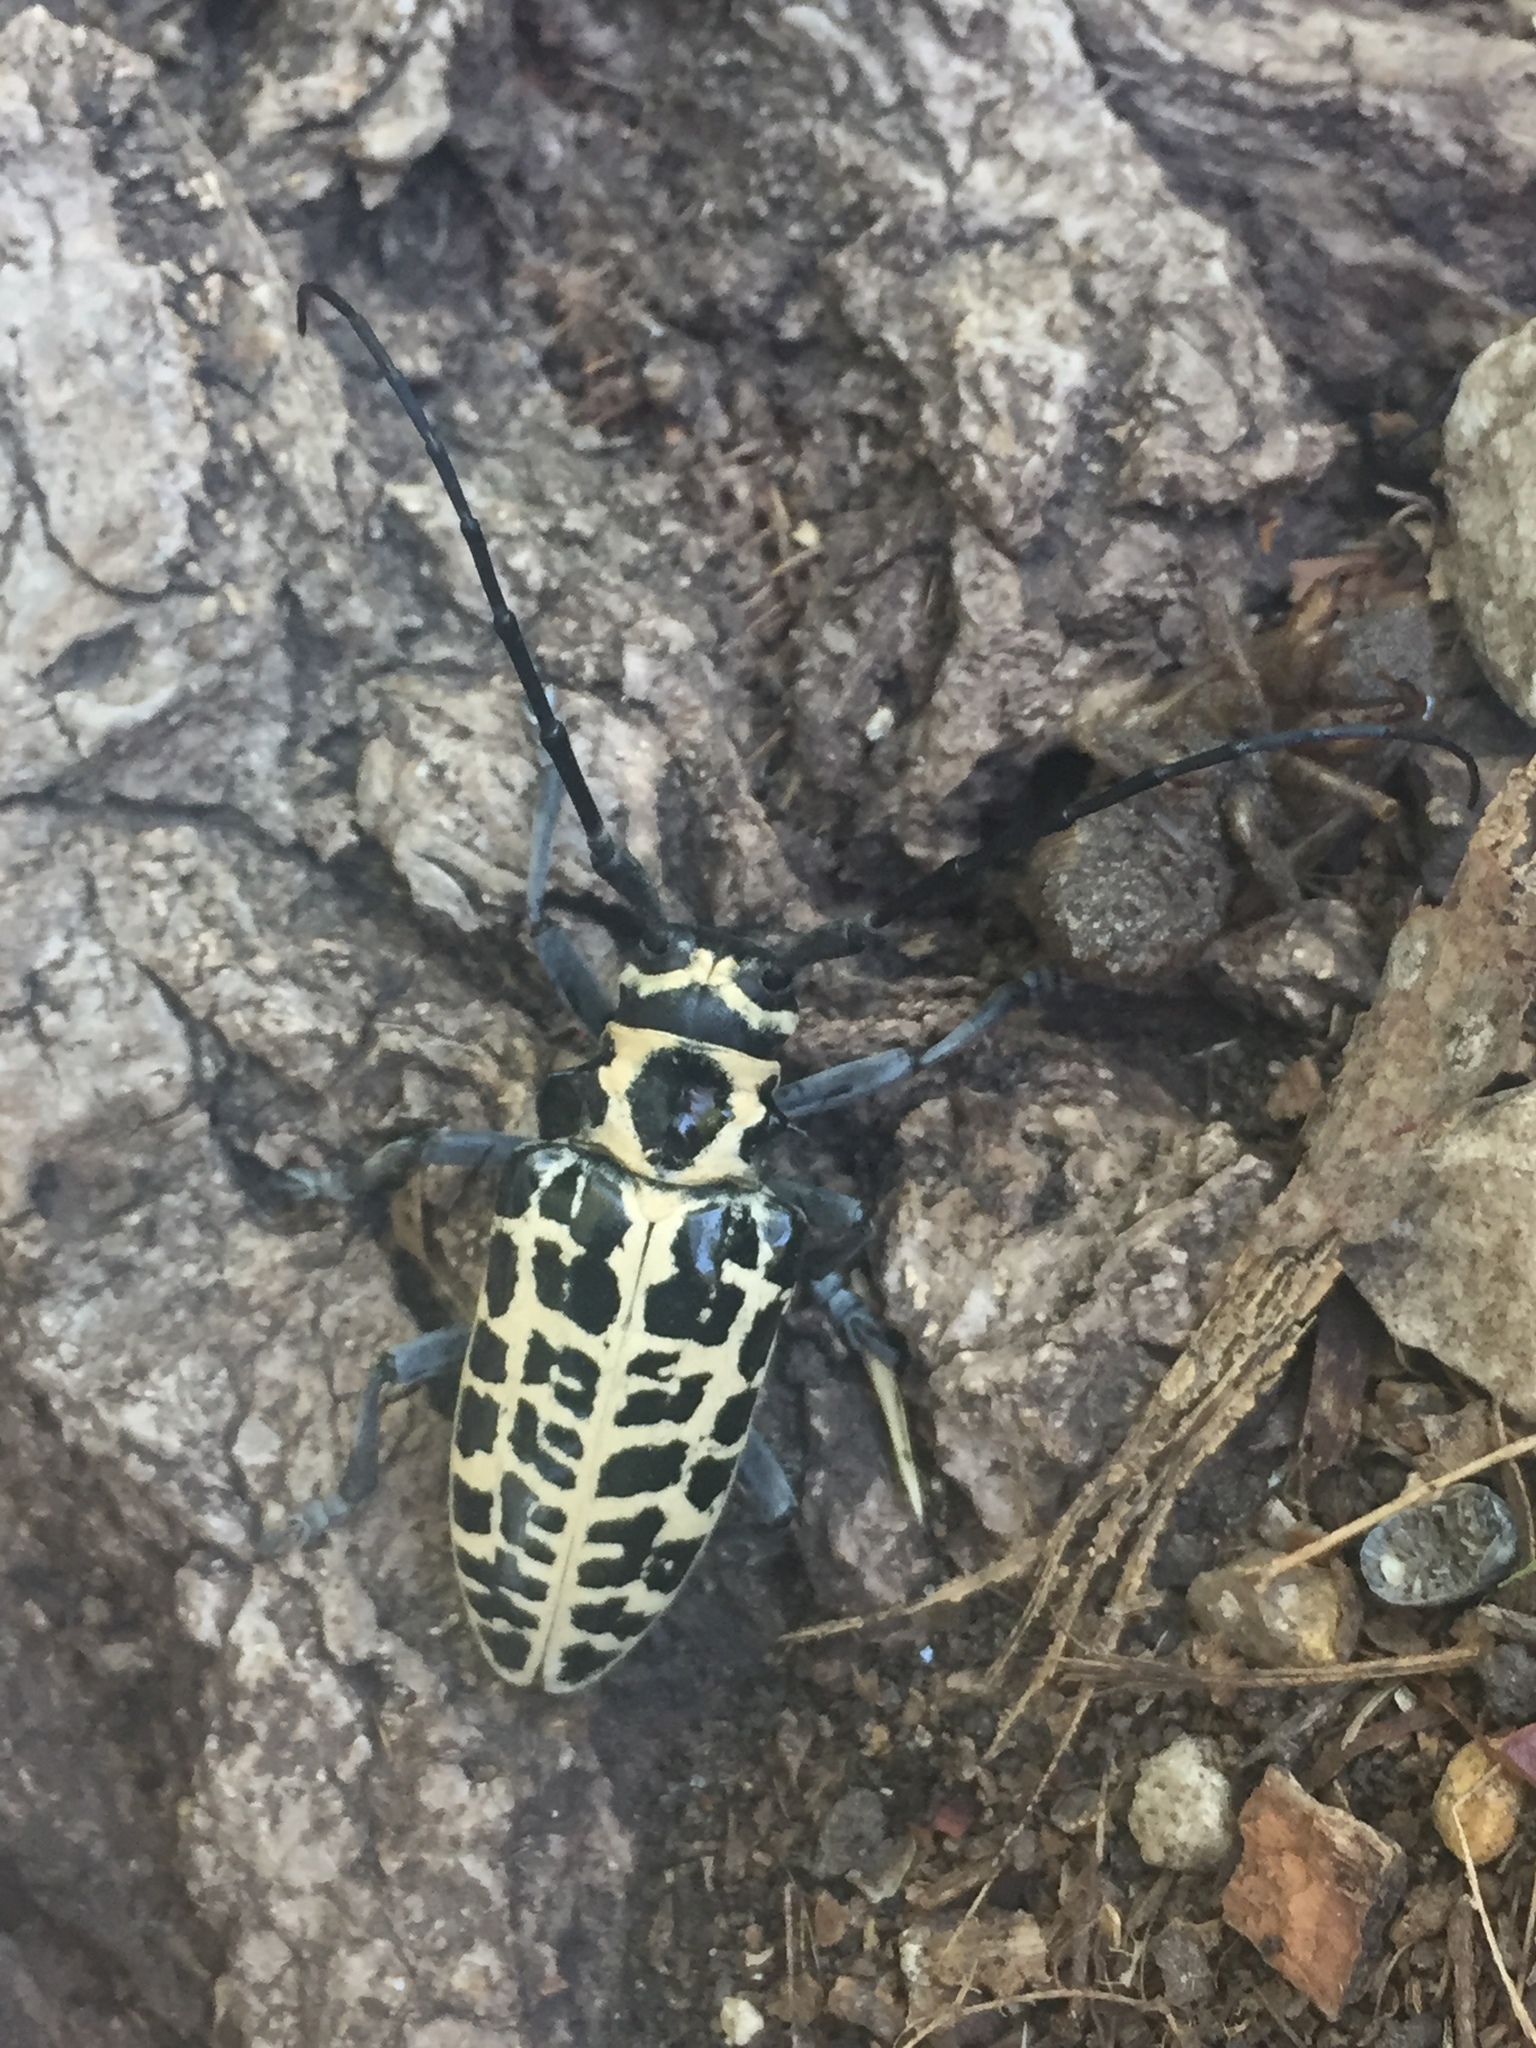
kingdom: Animalia
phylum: Arthropoda
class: Insecta
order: Coleoptera
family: Cerambycidae
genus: Plectrodera
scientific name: Plectrodera scalator
